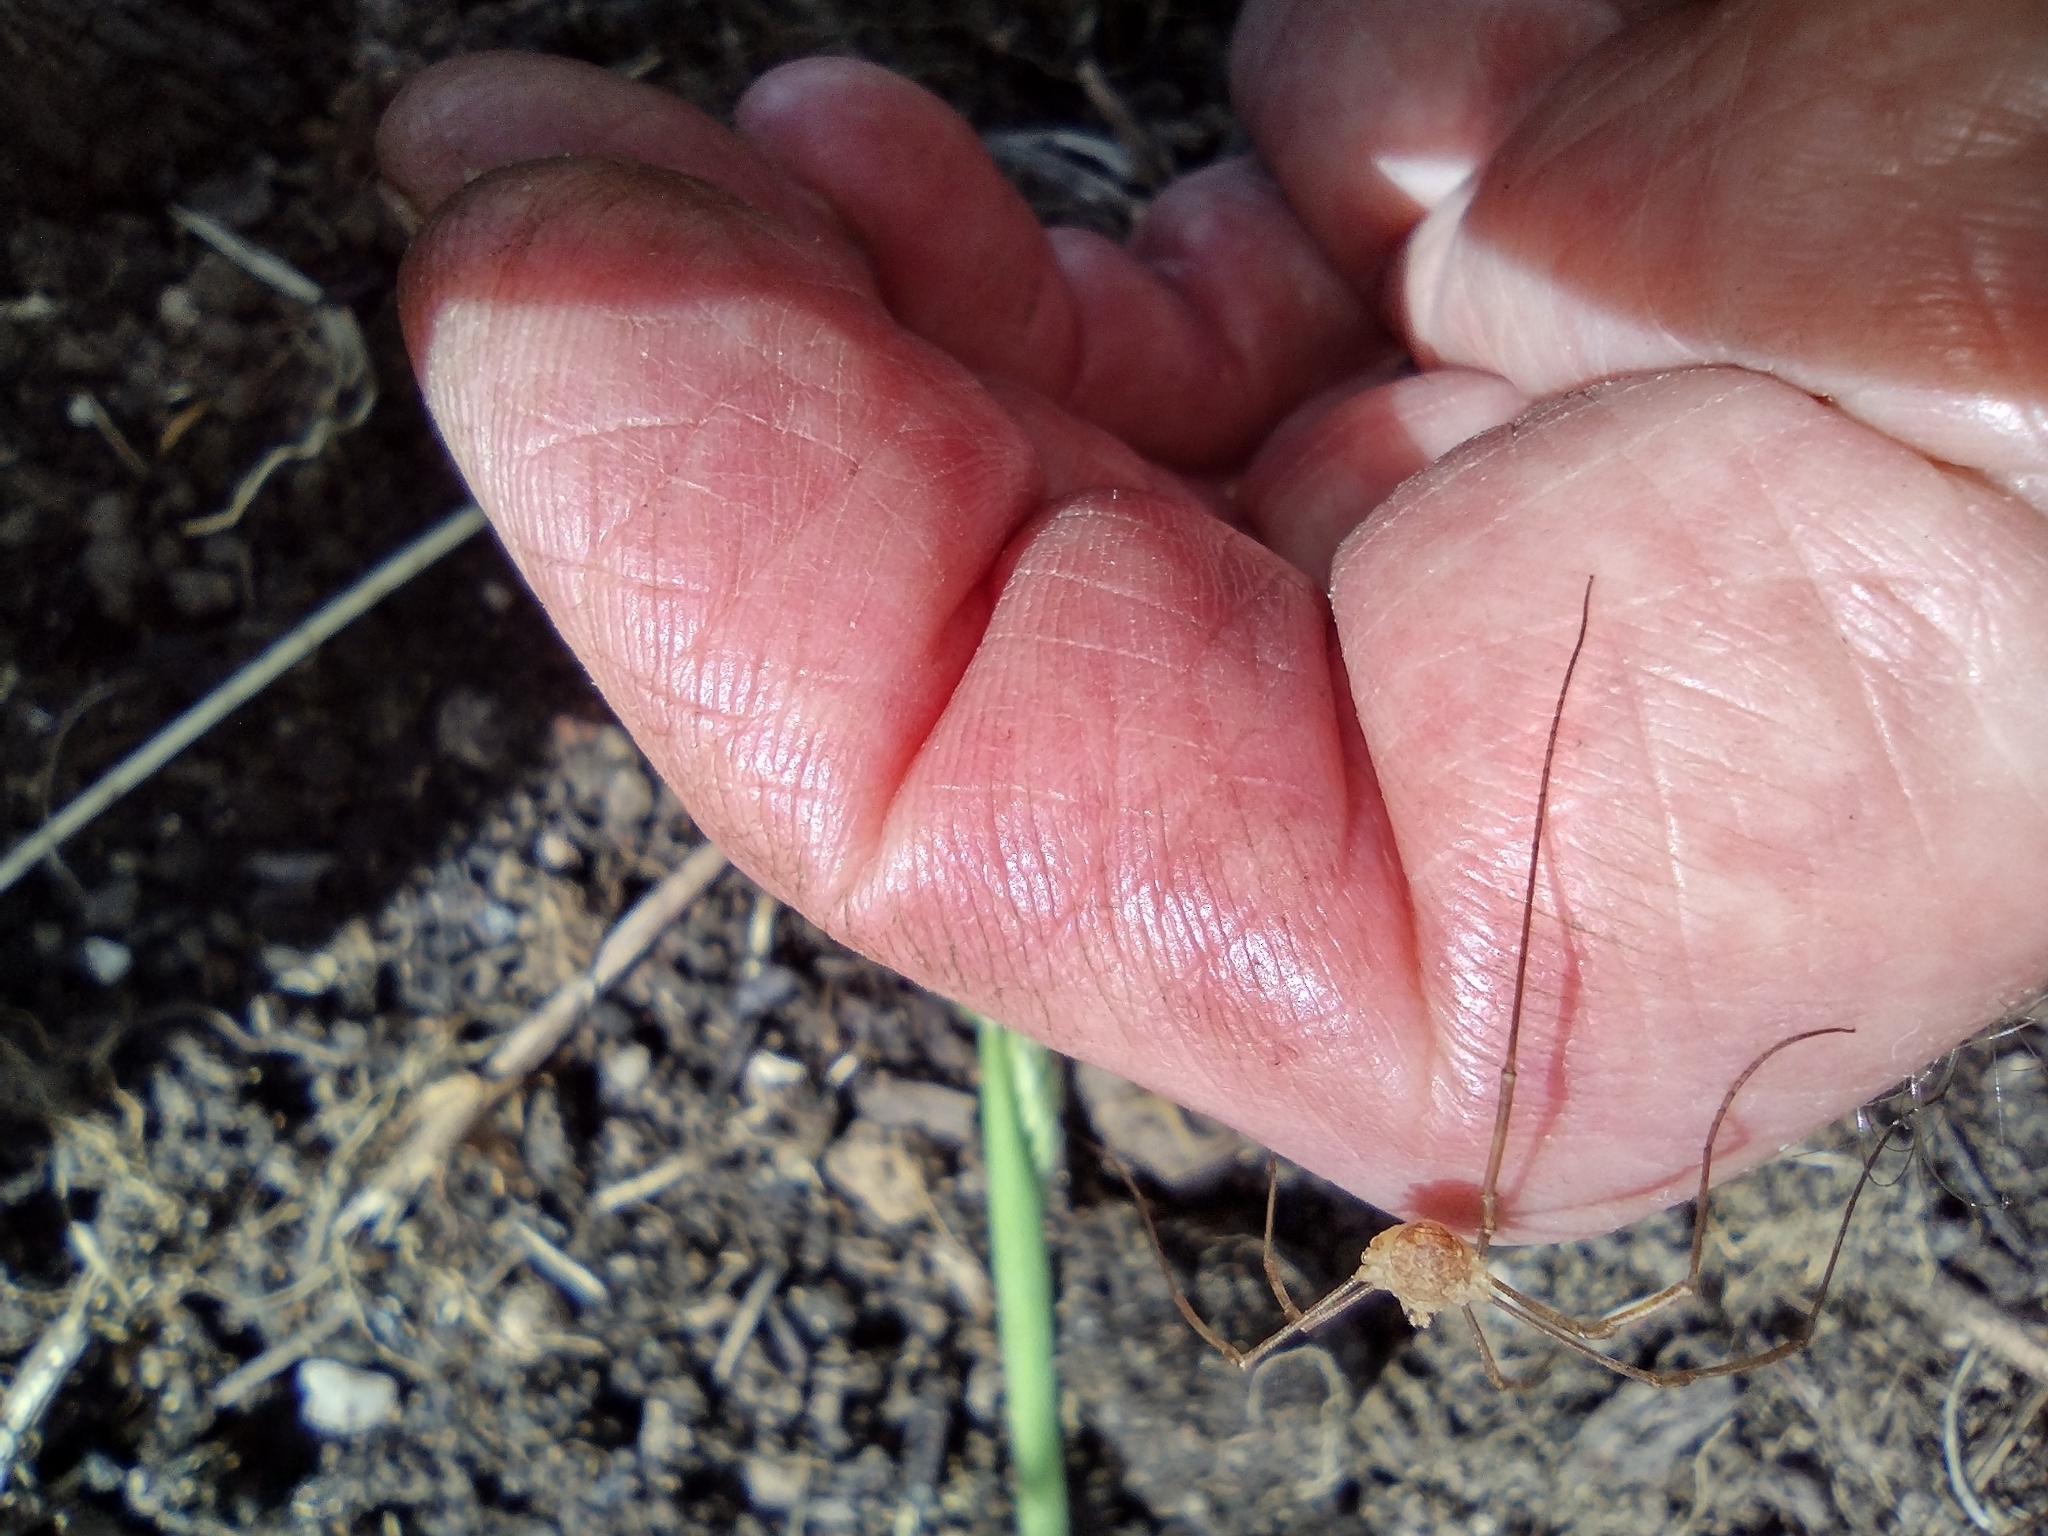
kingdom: Animalia
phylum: Arthropoda
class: Arachnida
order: Opiliones
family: Phalangiidae
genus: Rilaena
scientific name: Rilaena triangularis
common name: Spring harvestman
